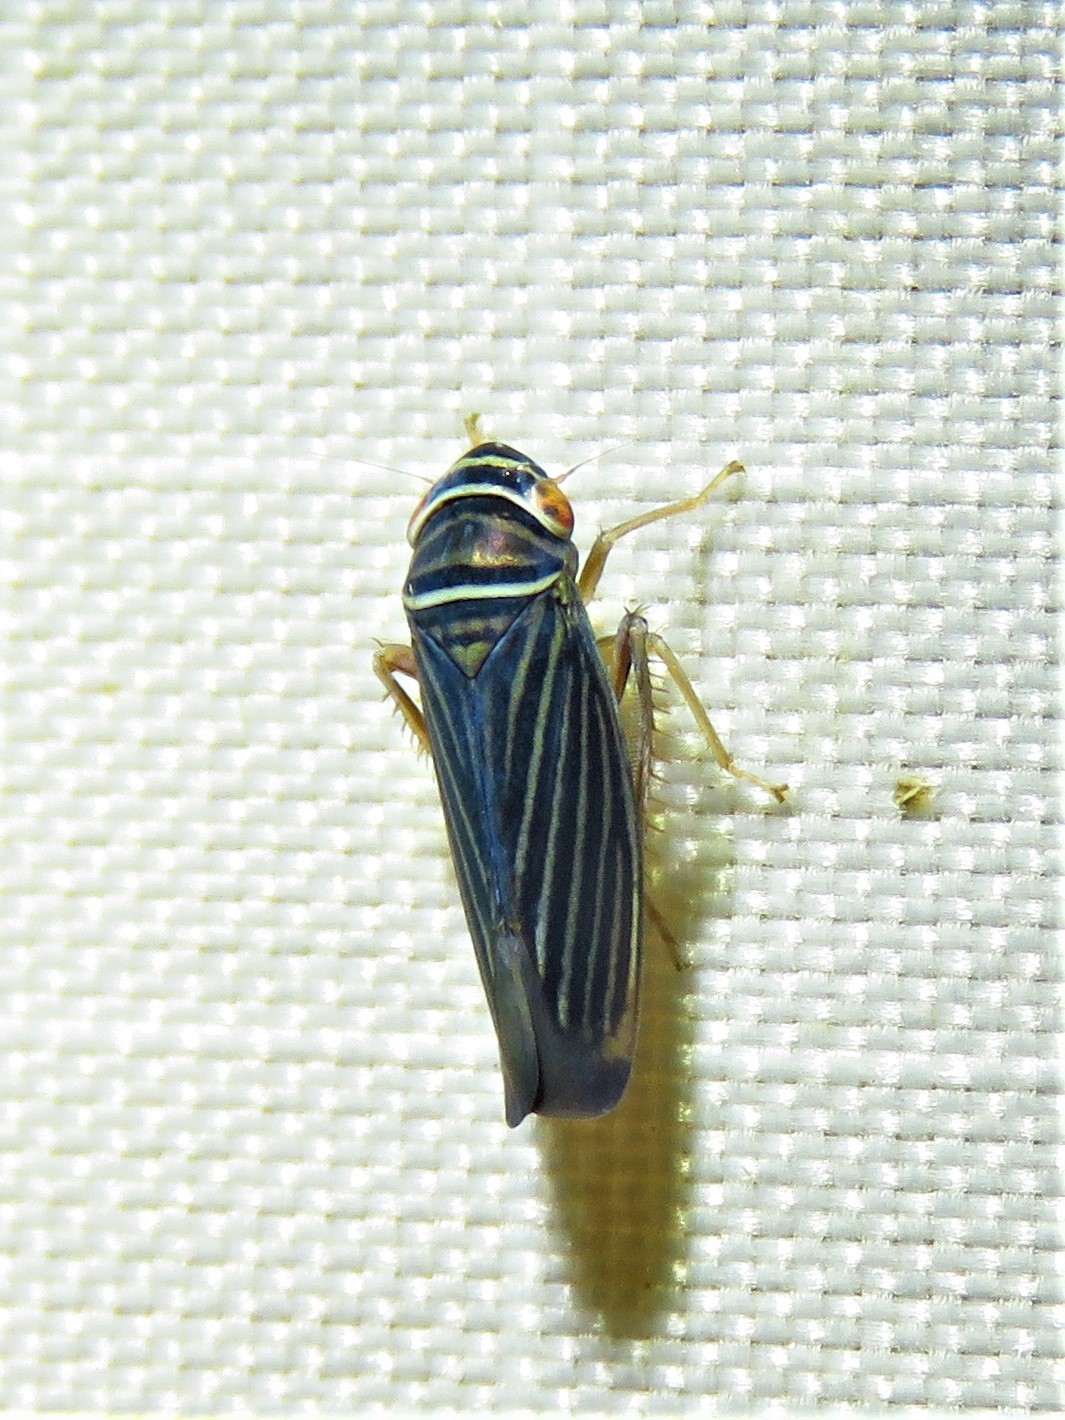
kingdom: Animalia
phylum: Arthropoda
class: Insecta
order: Hemiptera
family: Cicadellidae
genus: Tylozygus
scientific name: Tylozygus bifidus
